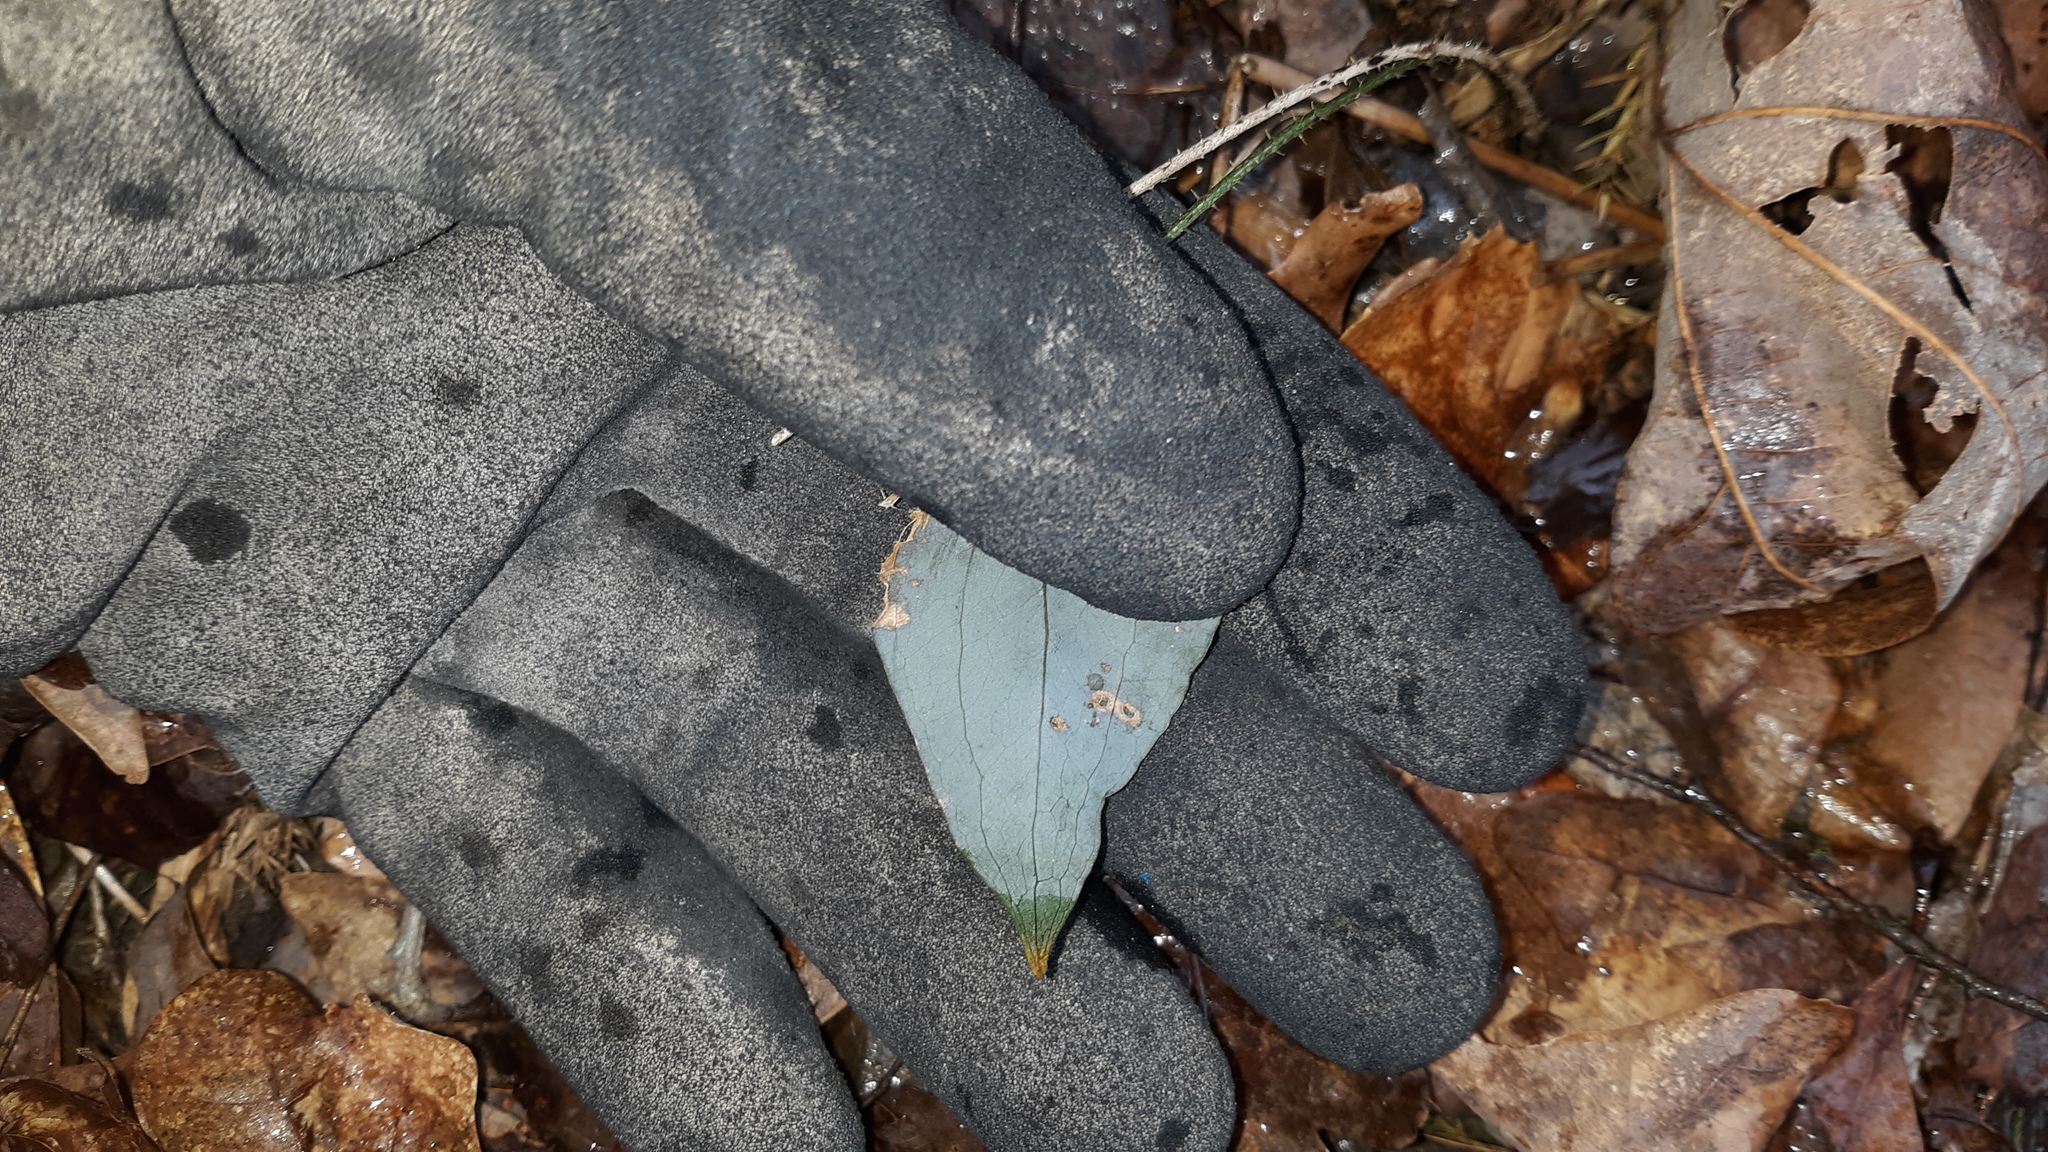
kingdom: Plantae
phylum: Tracheophyta
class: Liliopsida
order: Liliales
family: Smilacaceae
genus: Smilax
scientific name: Smilax glauca
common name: Cat greenbrier
